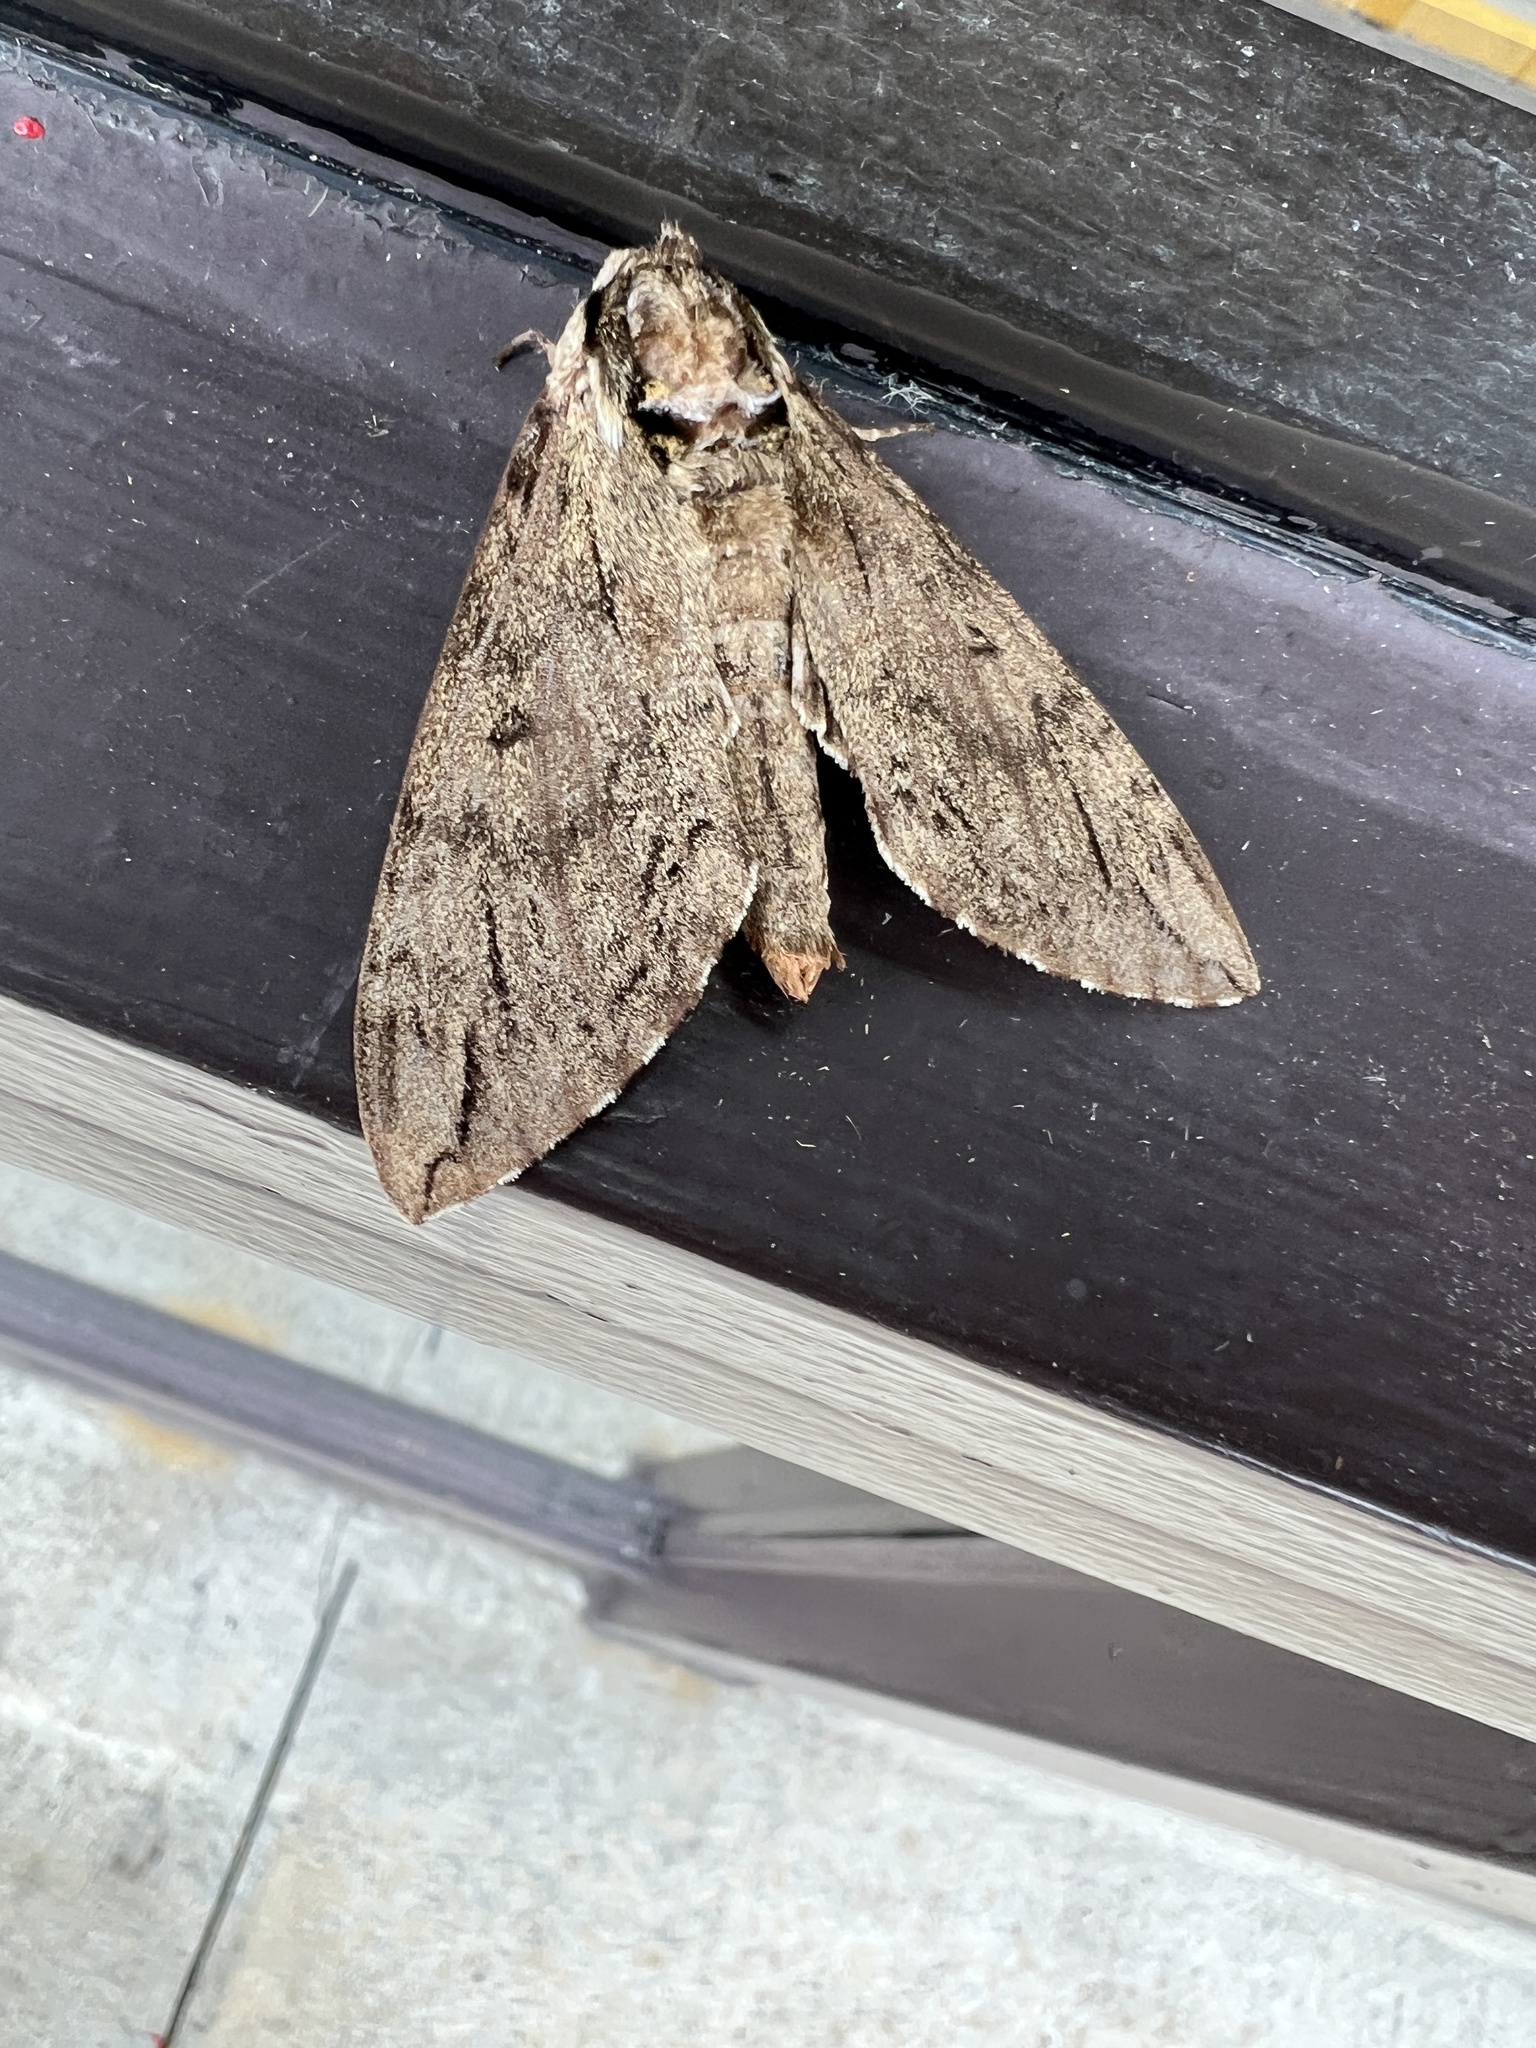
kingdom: Animalia
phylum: Arthropoda
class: Insecta
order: Lepidoptera
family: Sphingidae
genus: Ceratomia
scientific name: Ceratomia catalpae
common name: Catalpa hornworm
